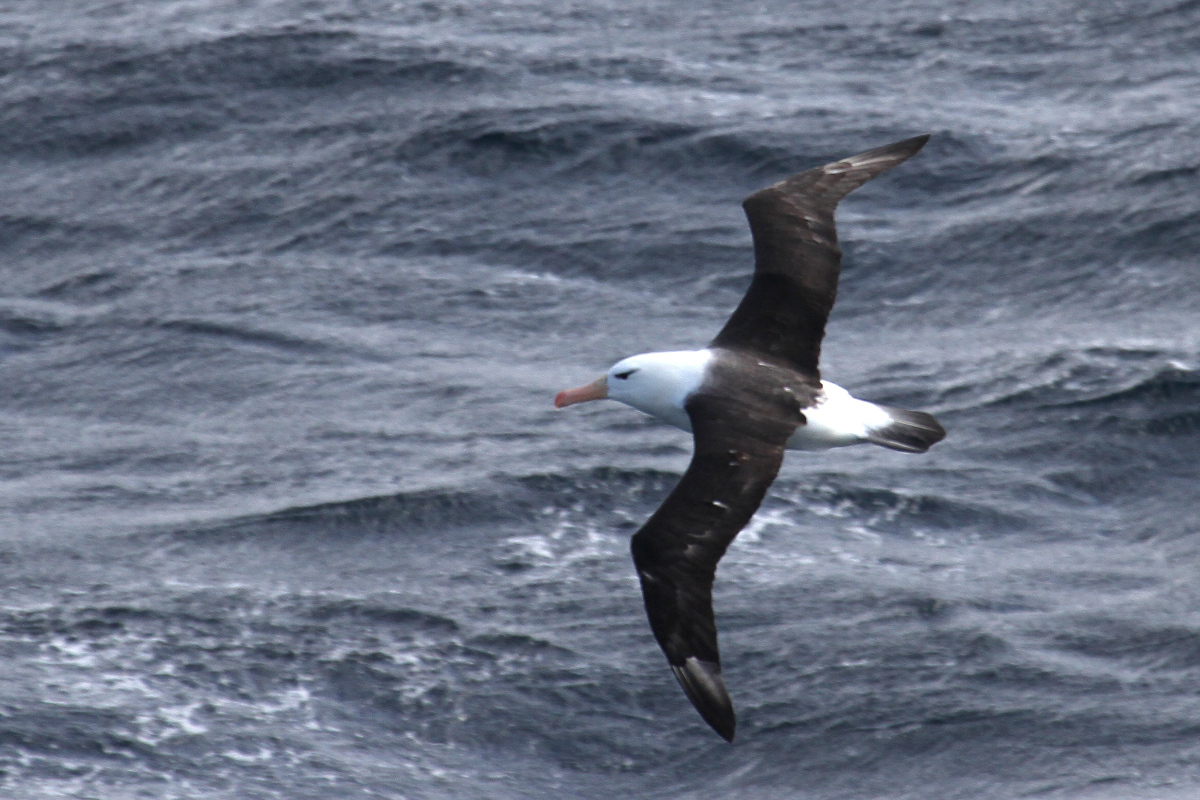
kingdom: Animalia
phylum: Chordata
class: Aves
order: Procellariiformes
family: Diomedeidae
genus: Thalassarche
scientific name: Thalassarche melanophris
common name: Black-browed albatross
